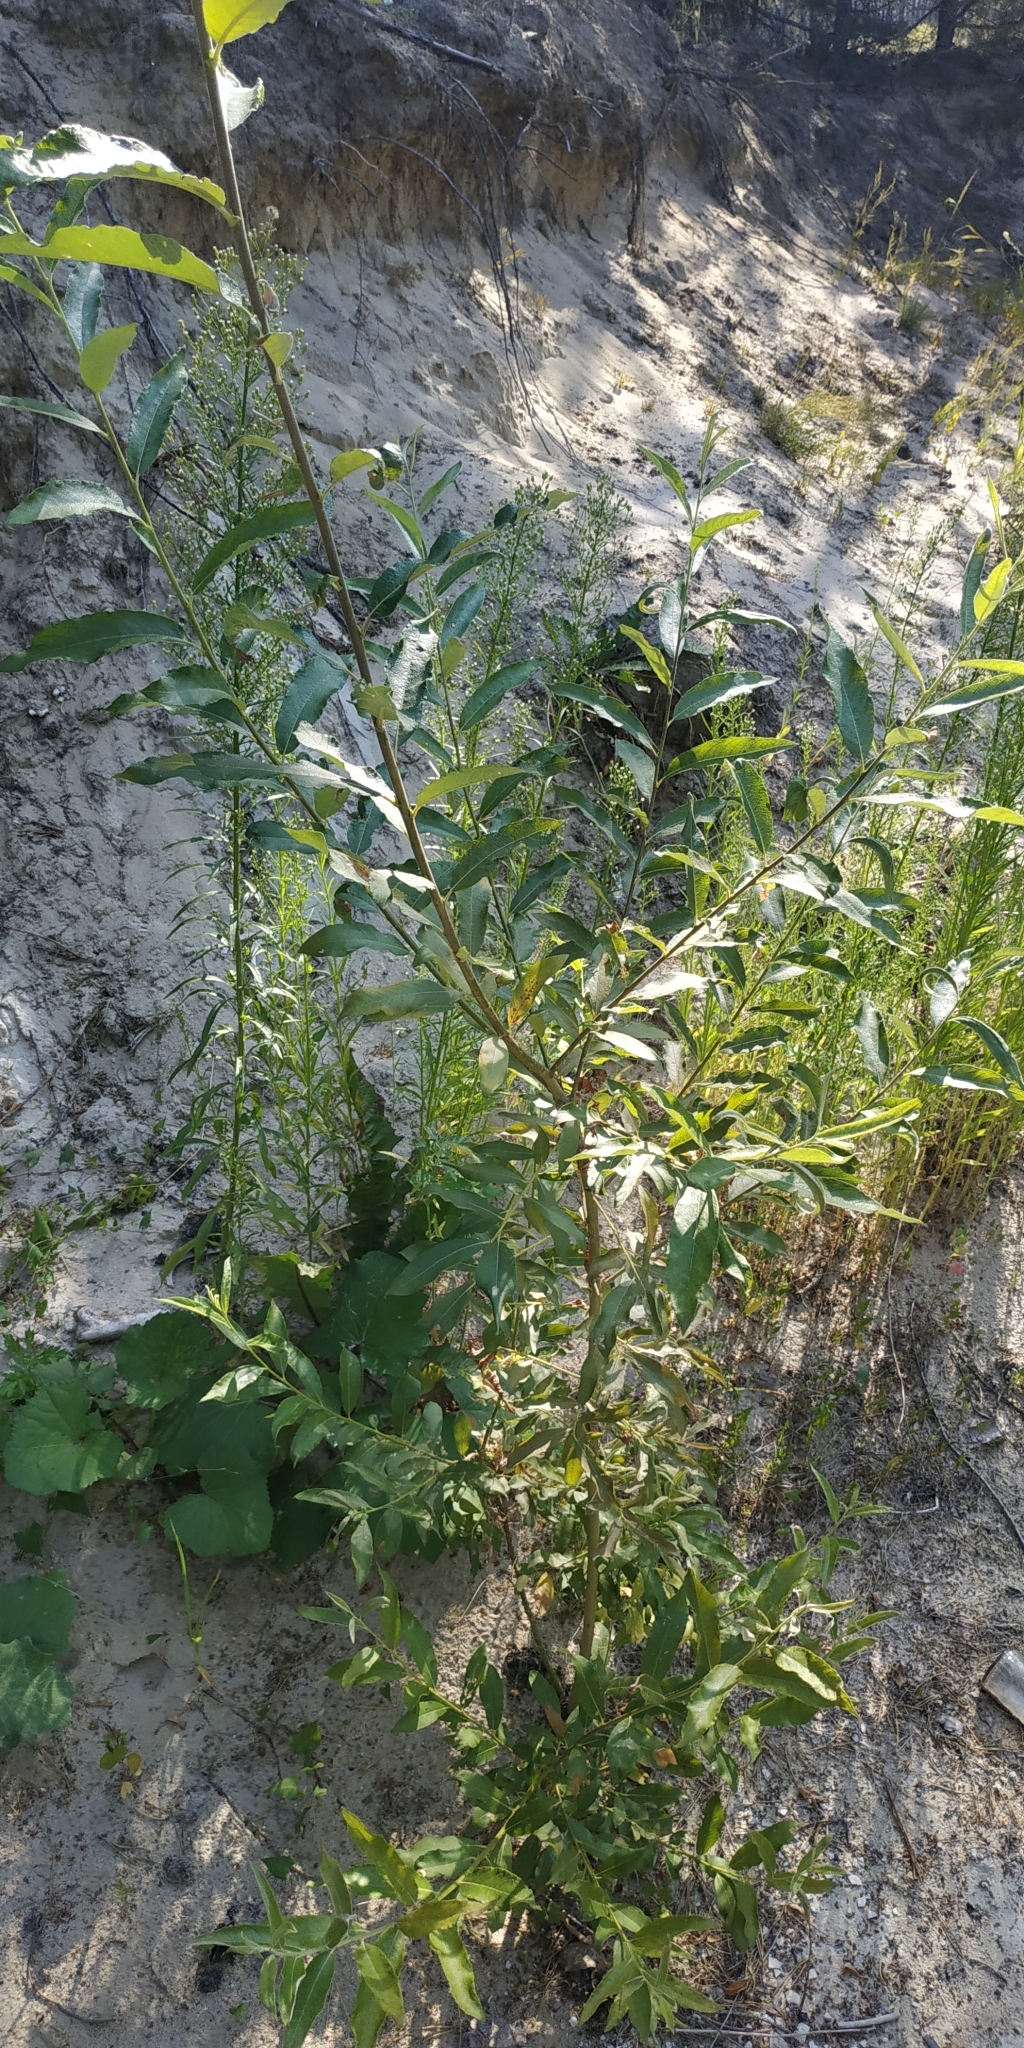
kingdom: Plantae
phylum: Tracheophyta
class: Magnoliopsida
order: Malpighiales
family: Salicaceae
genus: Salix
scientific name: Salix cinerea
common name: Common sallow
